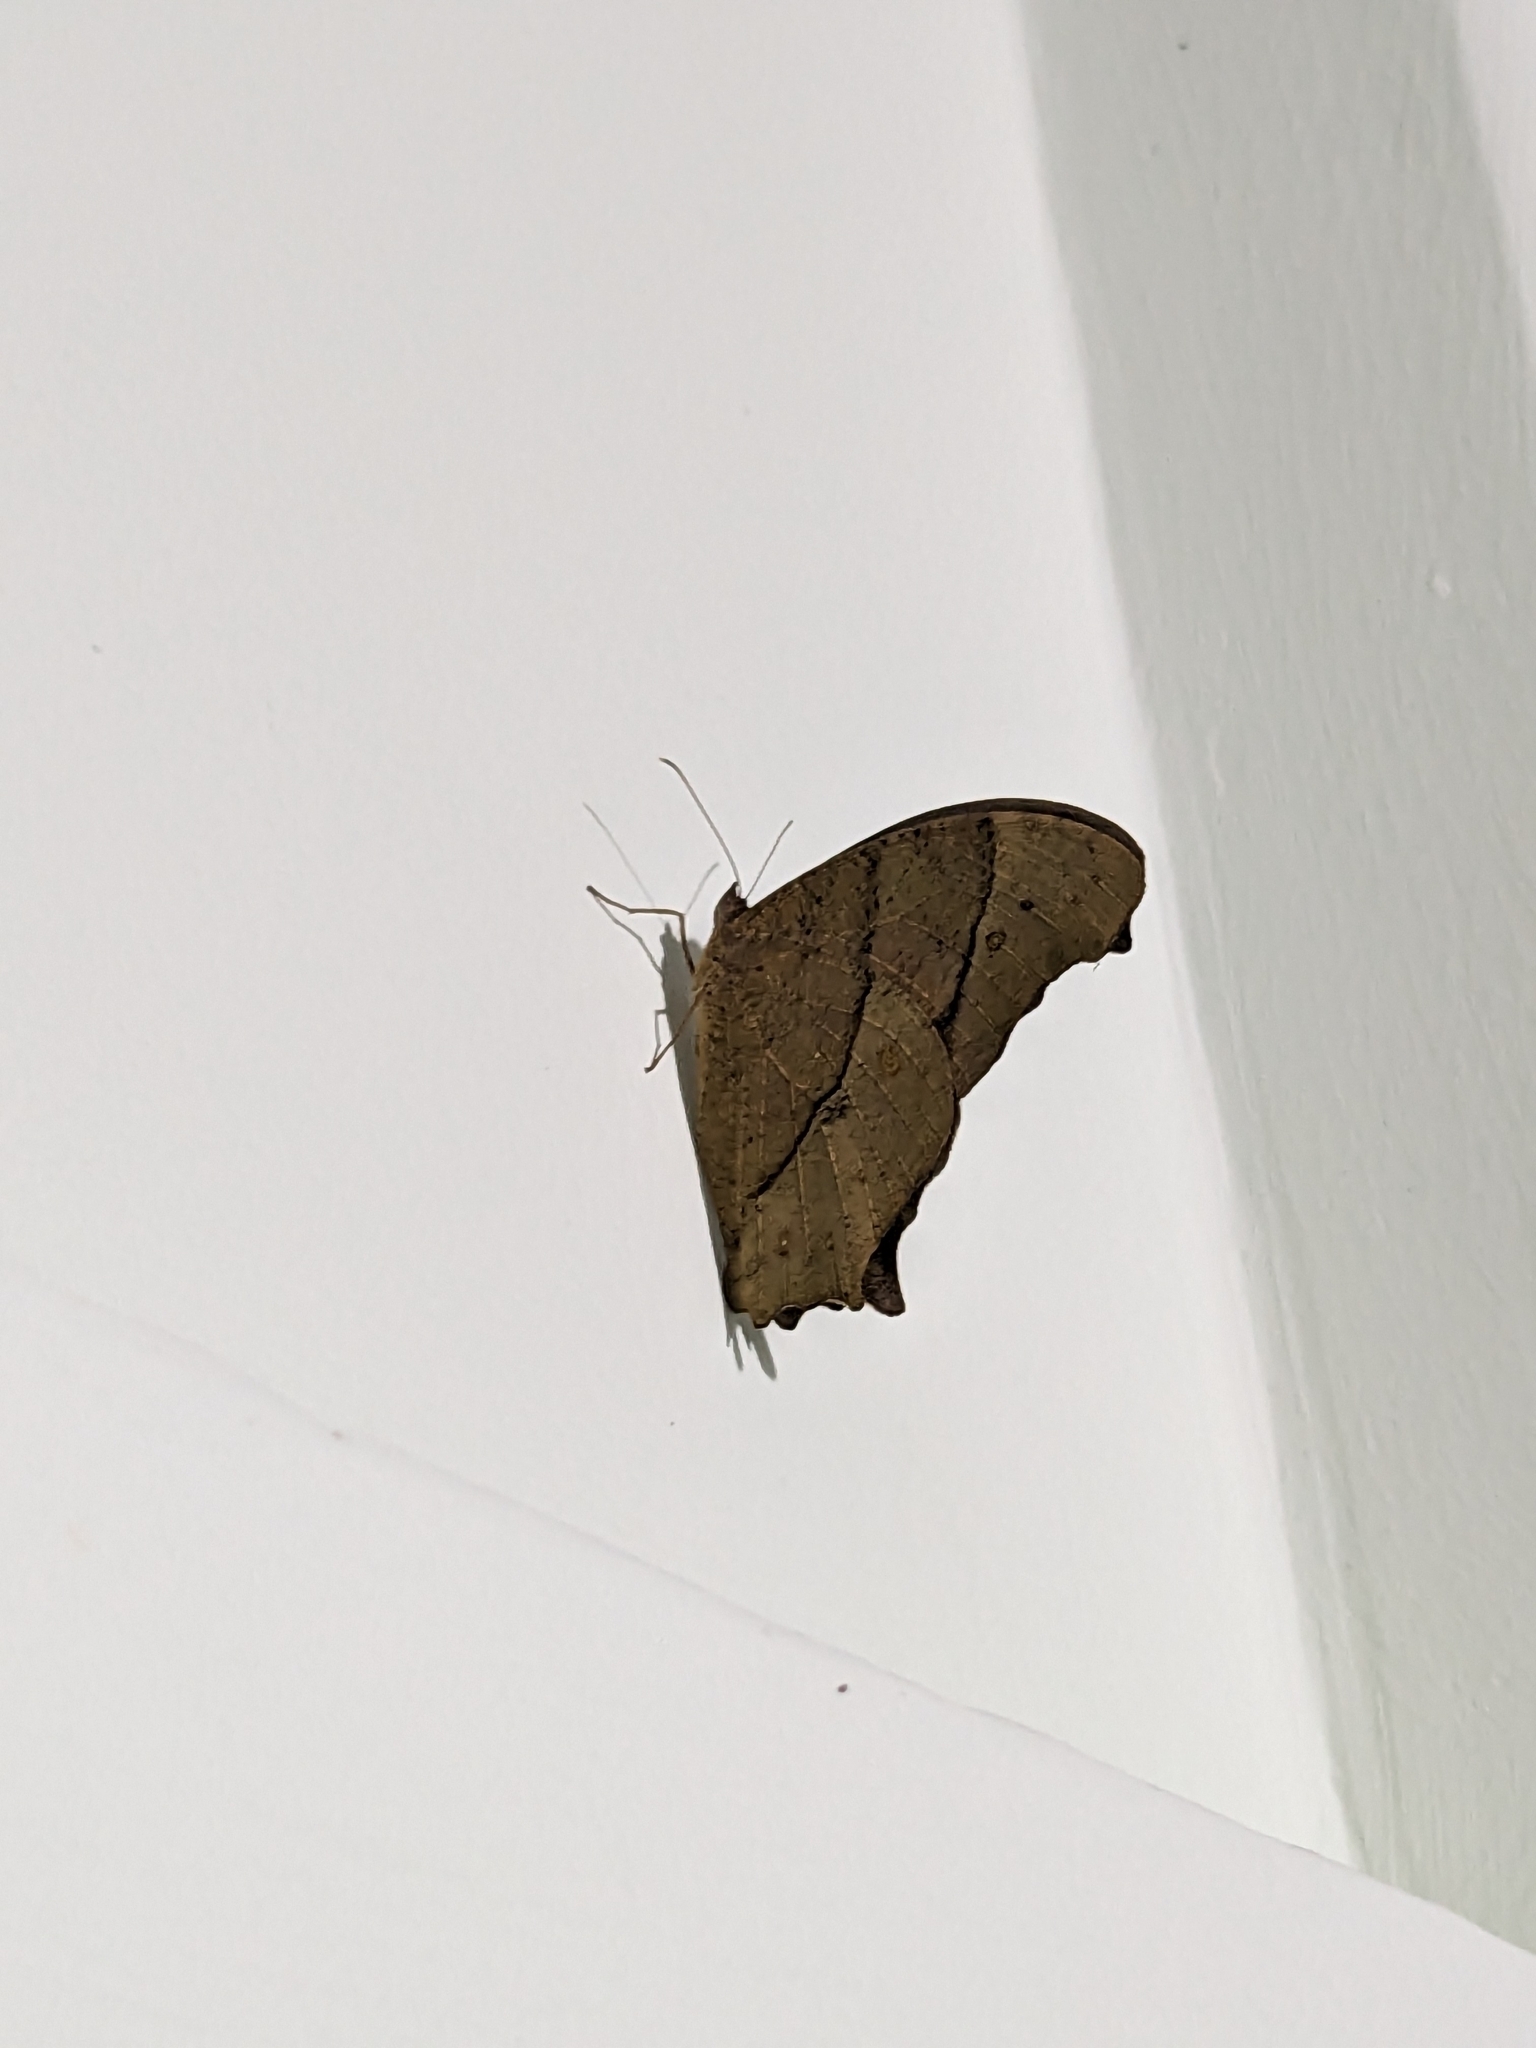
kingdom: Animalia
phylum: Arthropoda
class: Insecta
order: Lepidoptera
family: Nymphalidae
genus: Melanitis
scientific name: Melanitis leda
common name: Twilight brown
